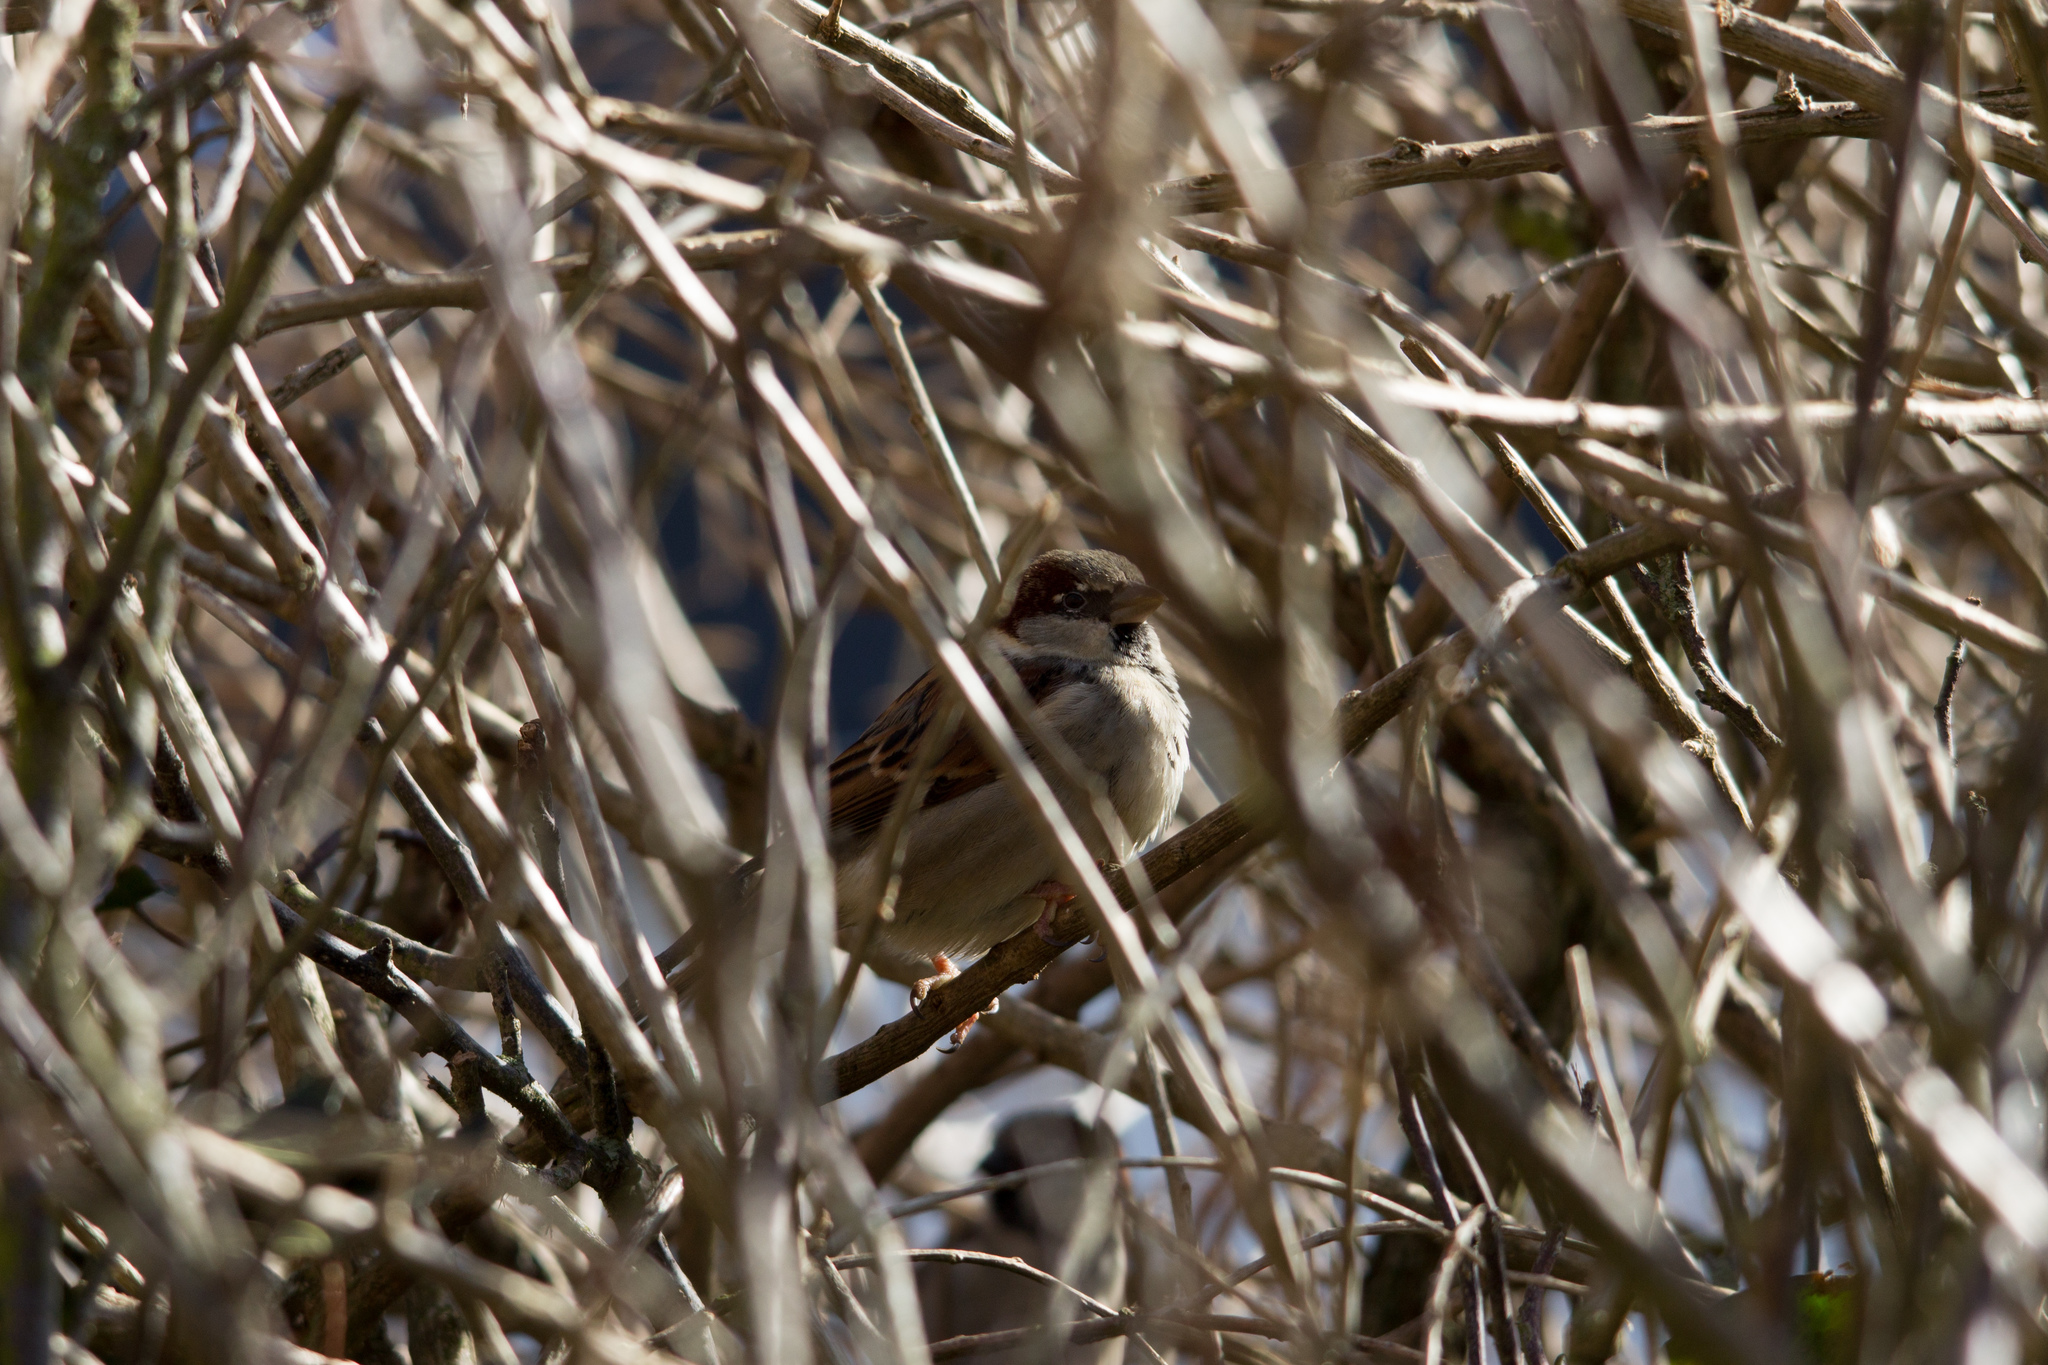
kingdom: Animalia
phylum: Chordata
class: Aves
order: Passeriformes
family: Passeridae
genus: Passer
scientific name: Passer domesticus
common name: House sparrow
